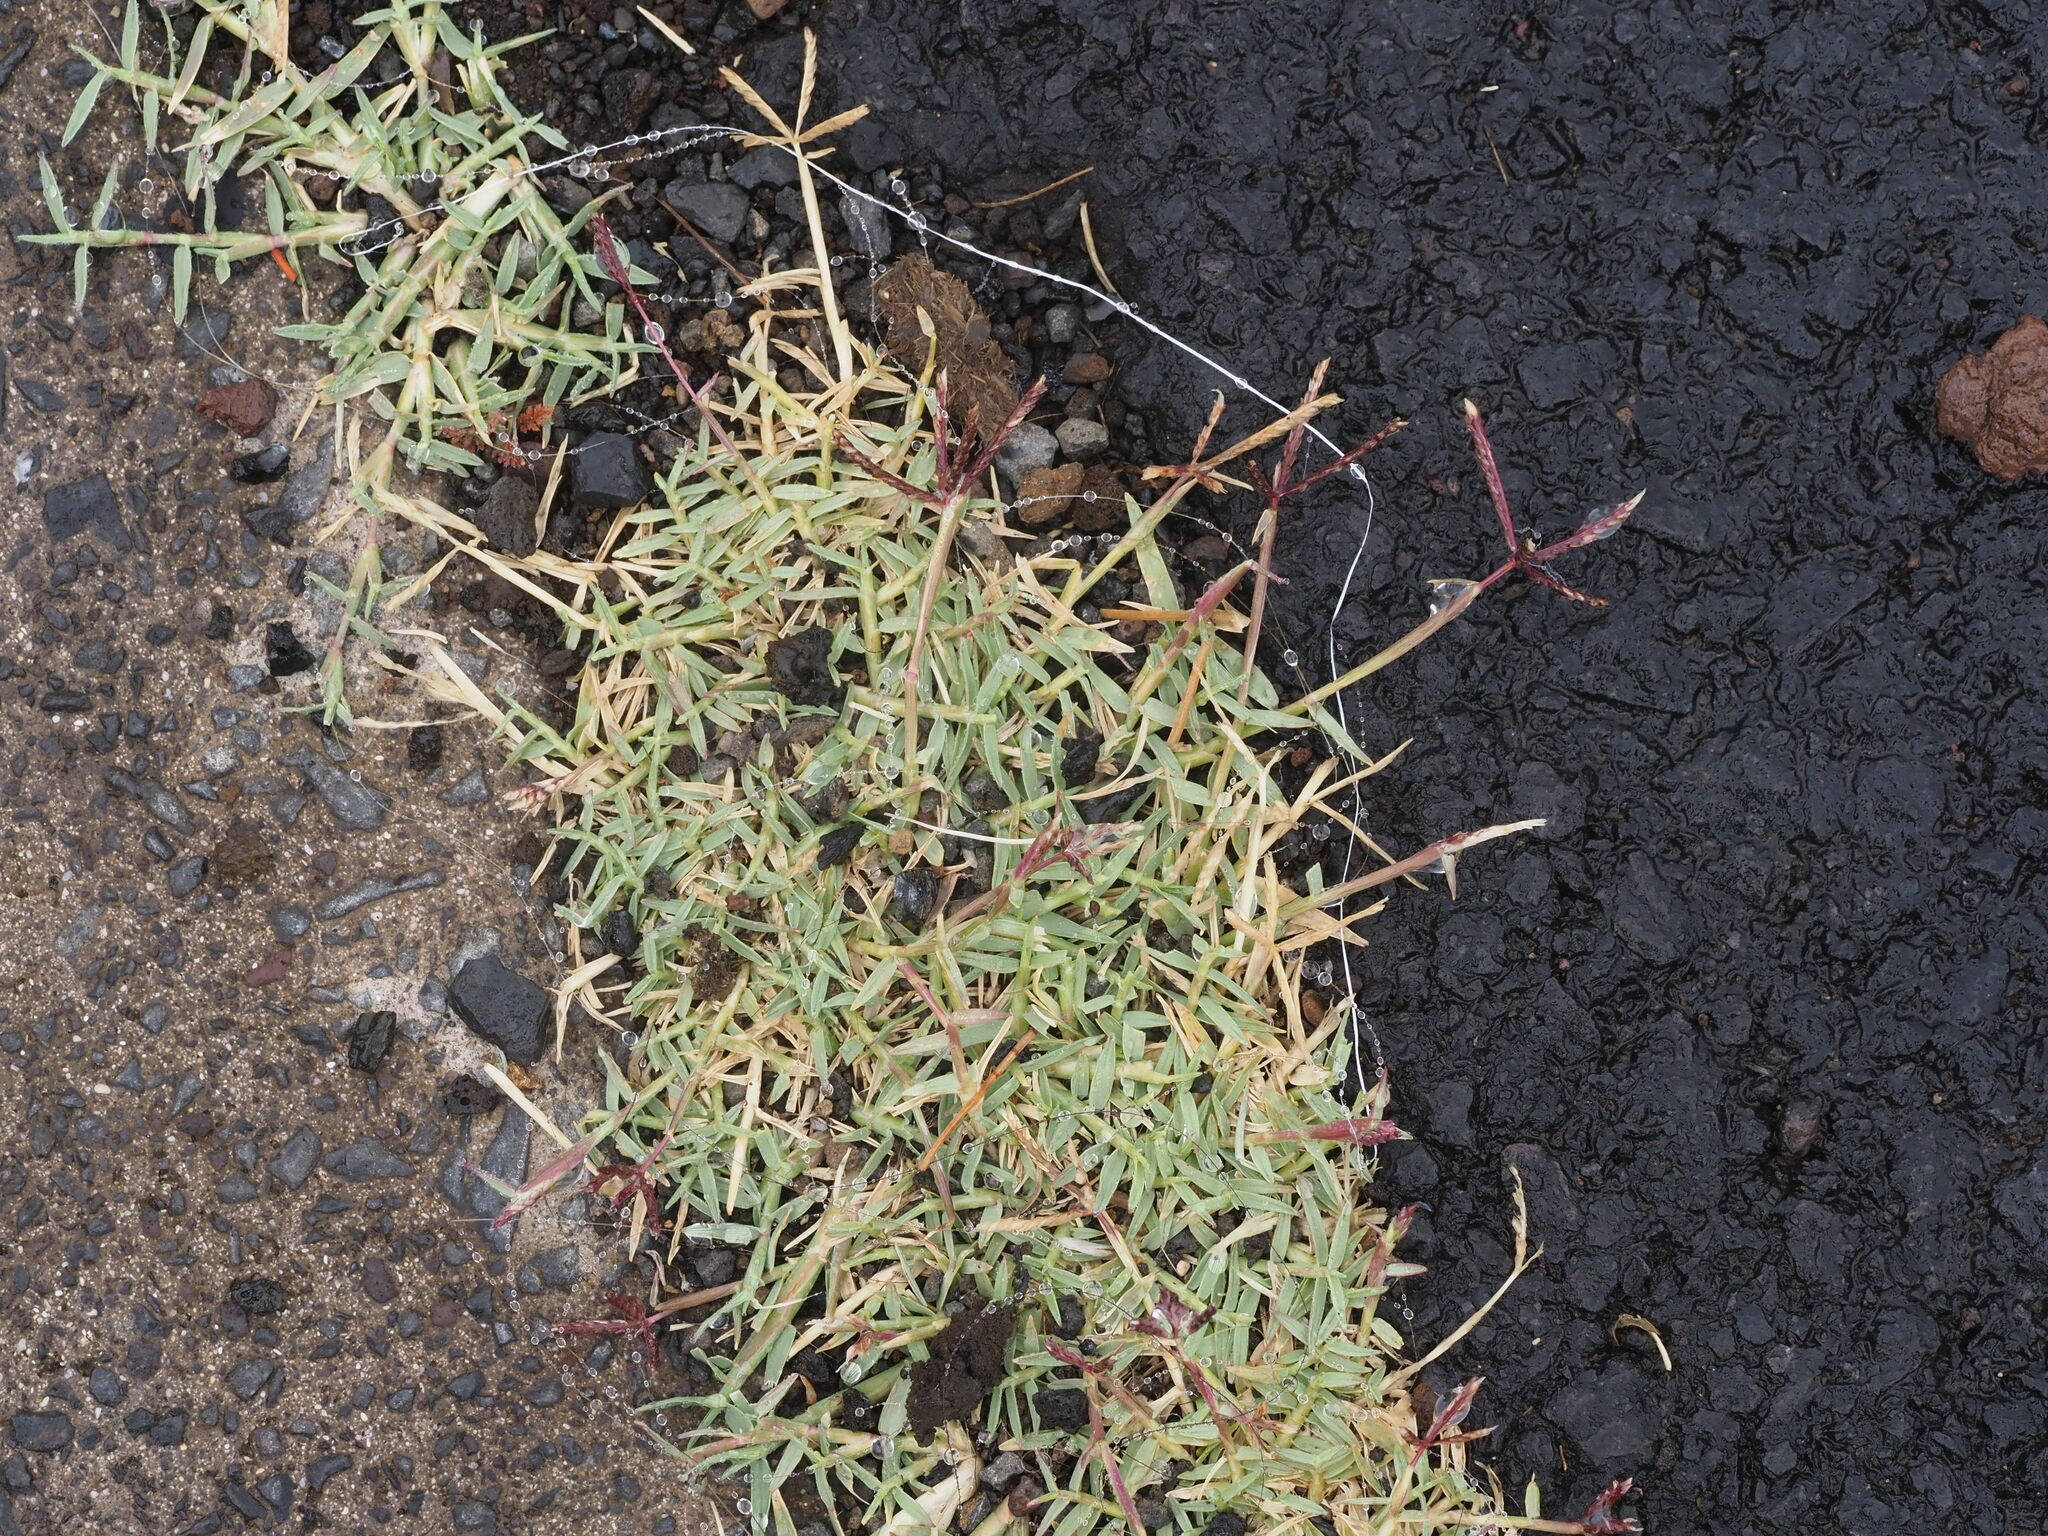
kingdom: Plantae
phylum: Tracheophyta
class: Liliopsida
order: Poales
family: Poaceae
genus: Cynodon
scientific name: Cynodon dactylon
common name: Bermuda grass
